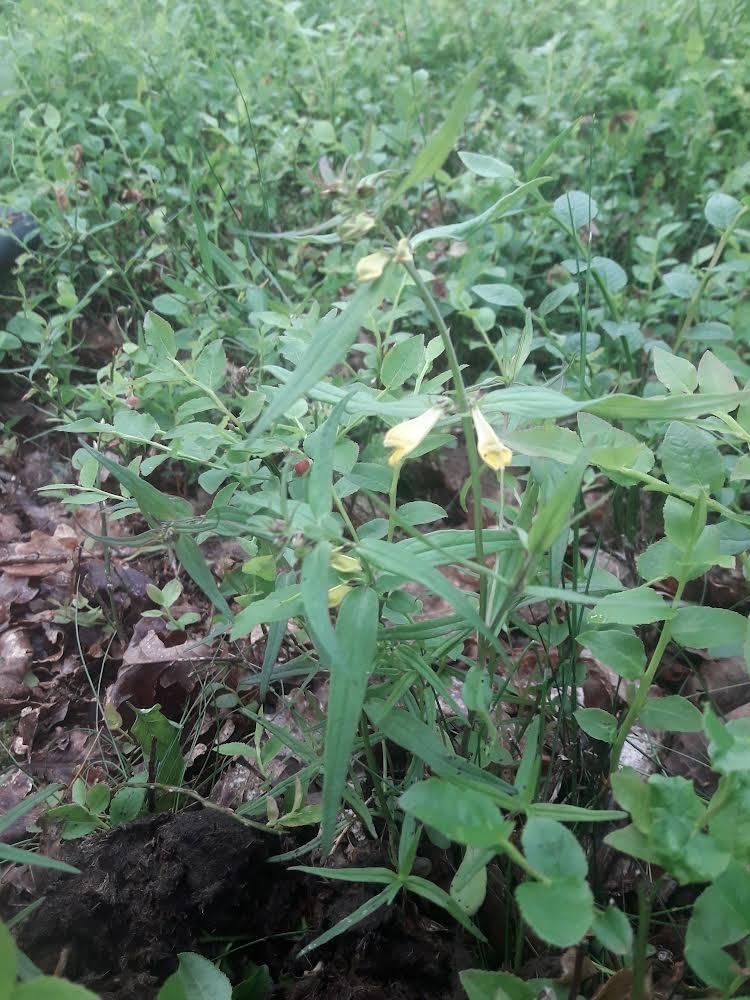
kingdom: Plantae
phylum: Tracheophyta
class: Magnoliopsida
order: Lamiales
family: Orobanchaceae
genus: Melampyrum
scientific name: Melampyrum pratense
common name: Common cow-wheat
